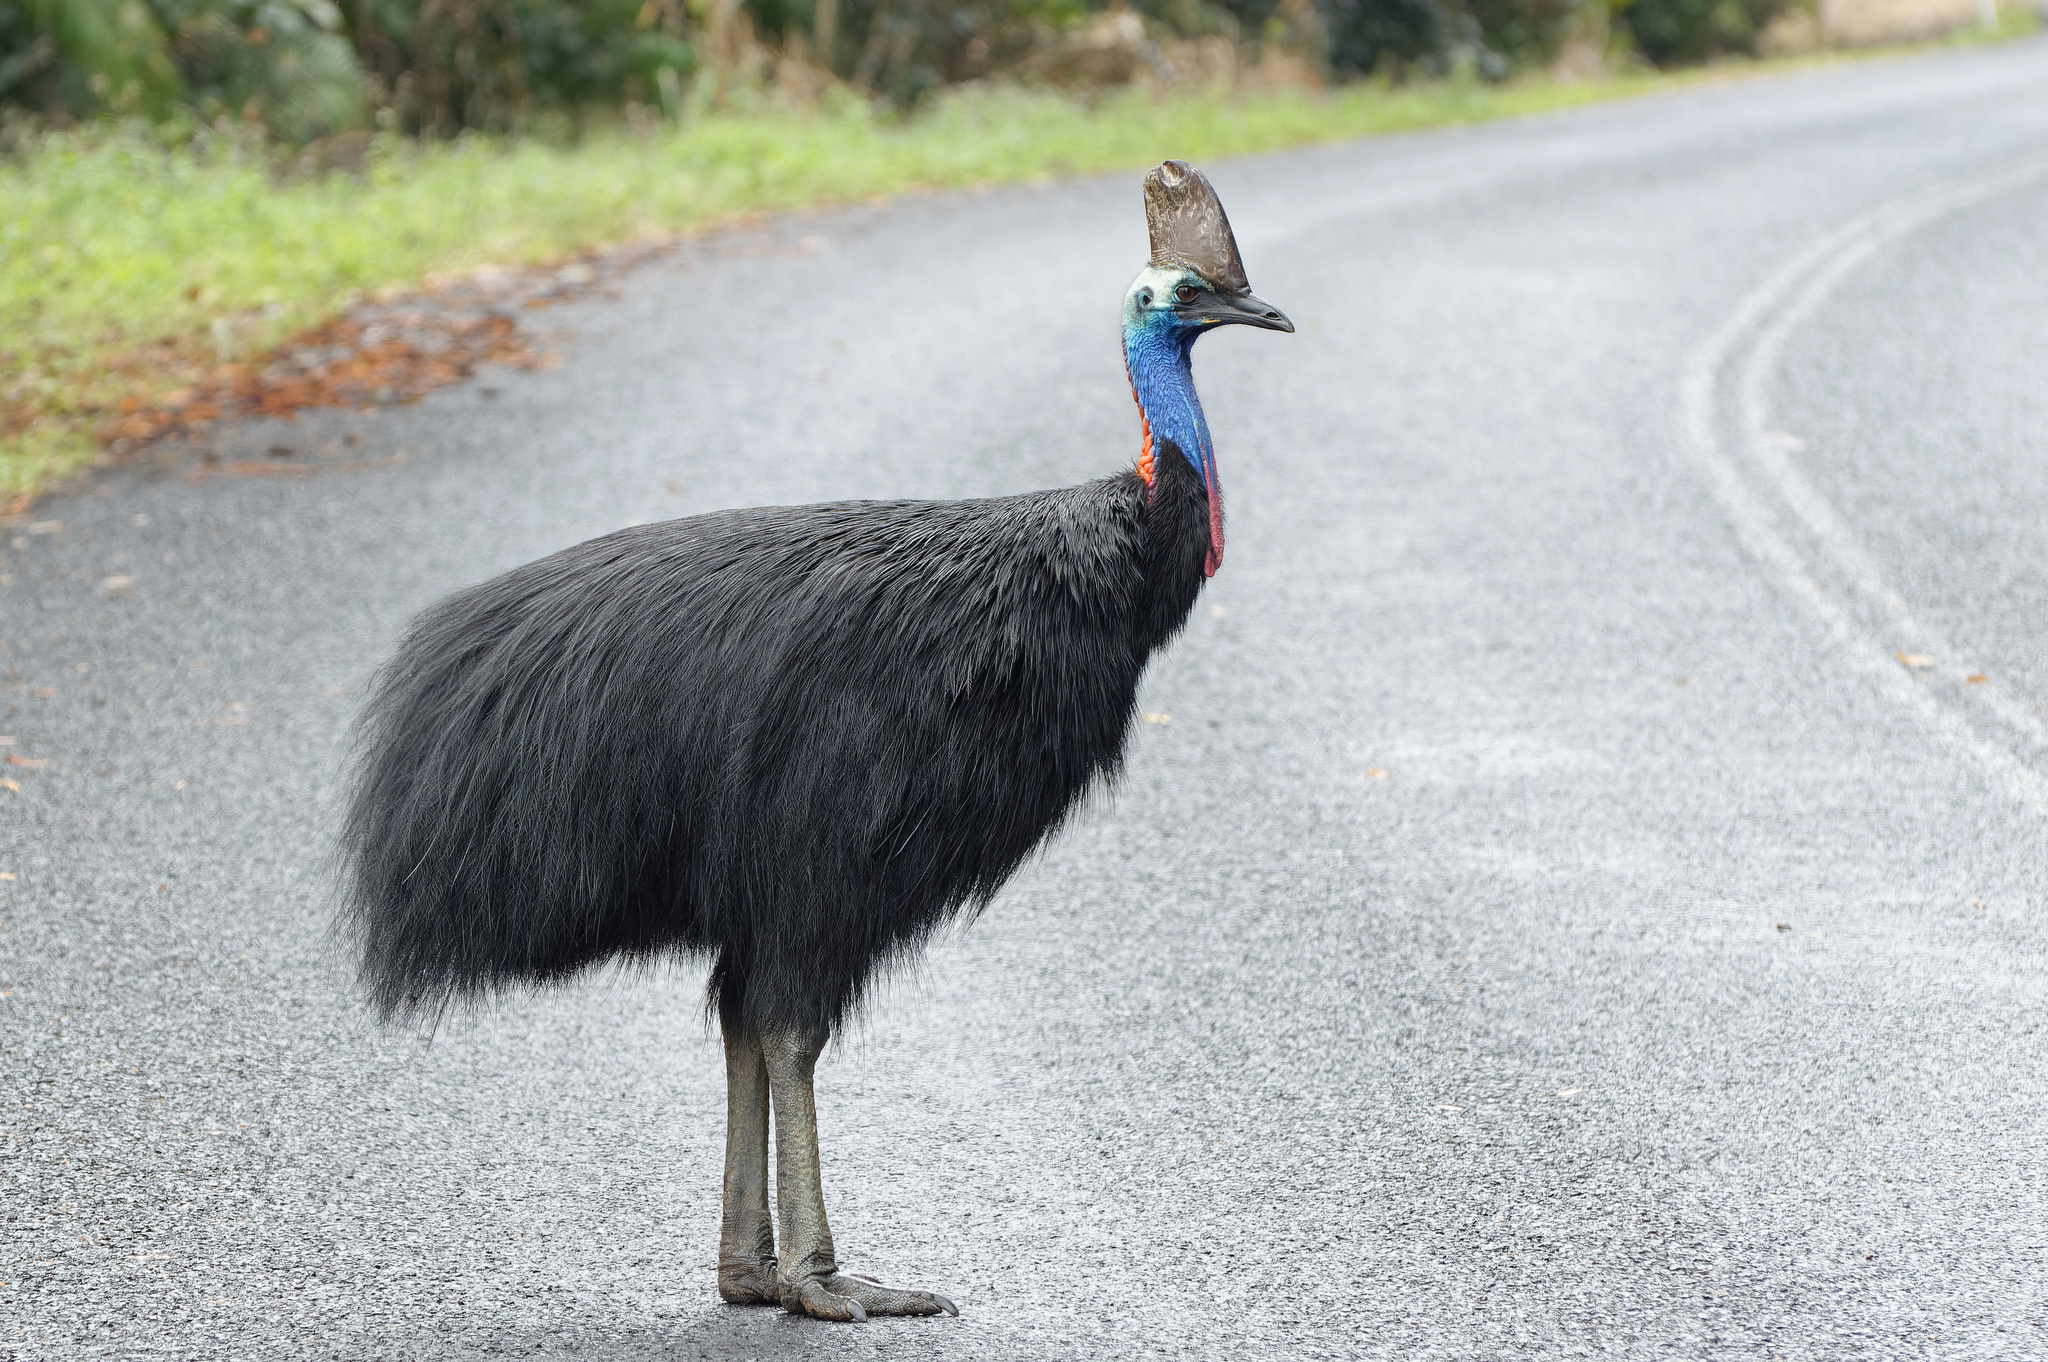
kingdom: Animalia
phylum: Chordata
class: Aves
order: Casuariiformes
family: Casuariidae
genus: Casuarius
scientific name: Casuarius casuarius
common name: Southern cassowary
